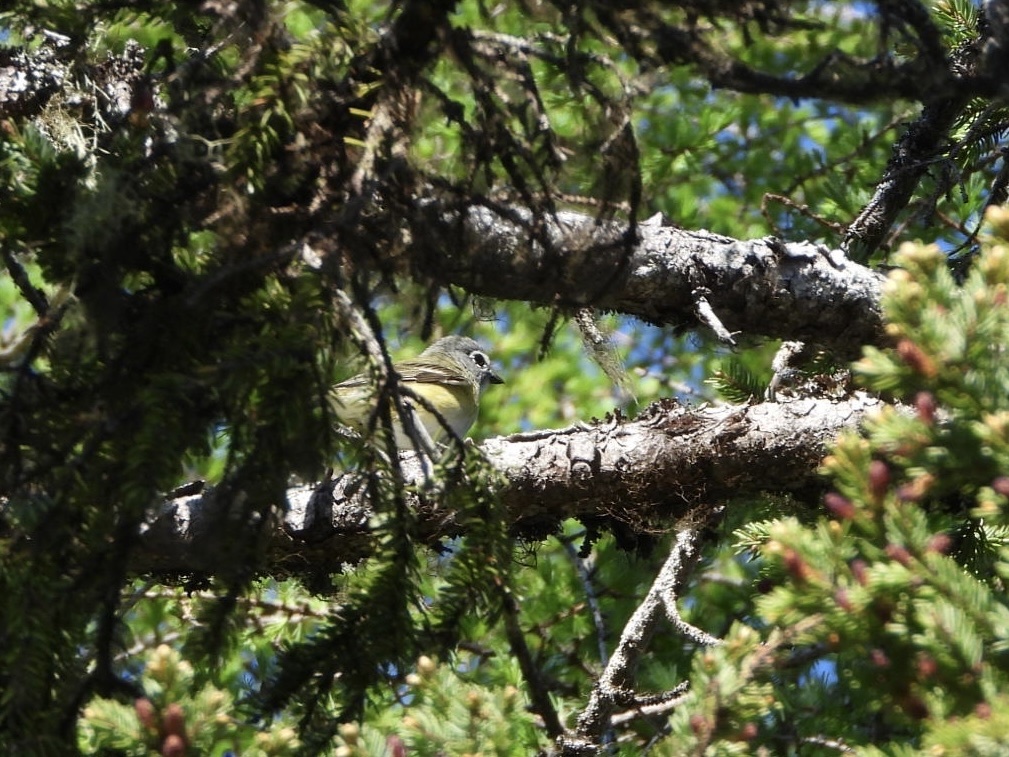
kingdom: Animalia
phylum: Chordata
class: Aves
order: Passeriformes
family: Vireonidae
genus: Vireo
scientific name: Vireo solitarius
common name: Blue-headed vireo
